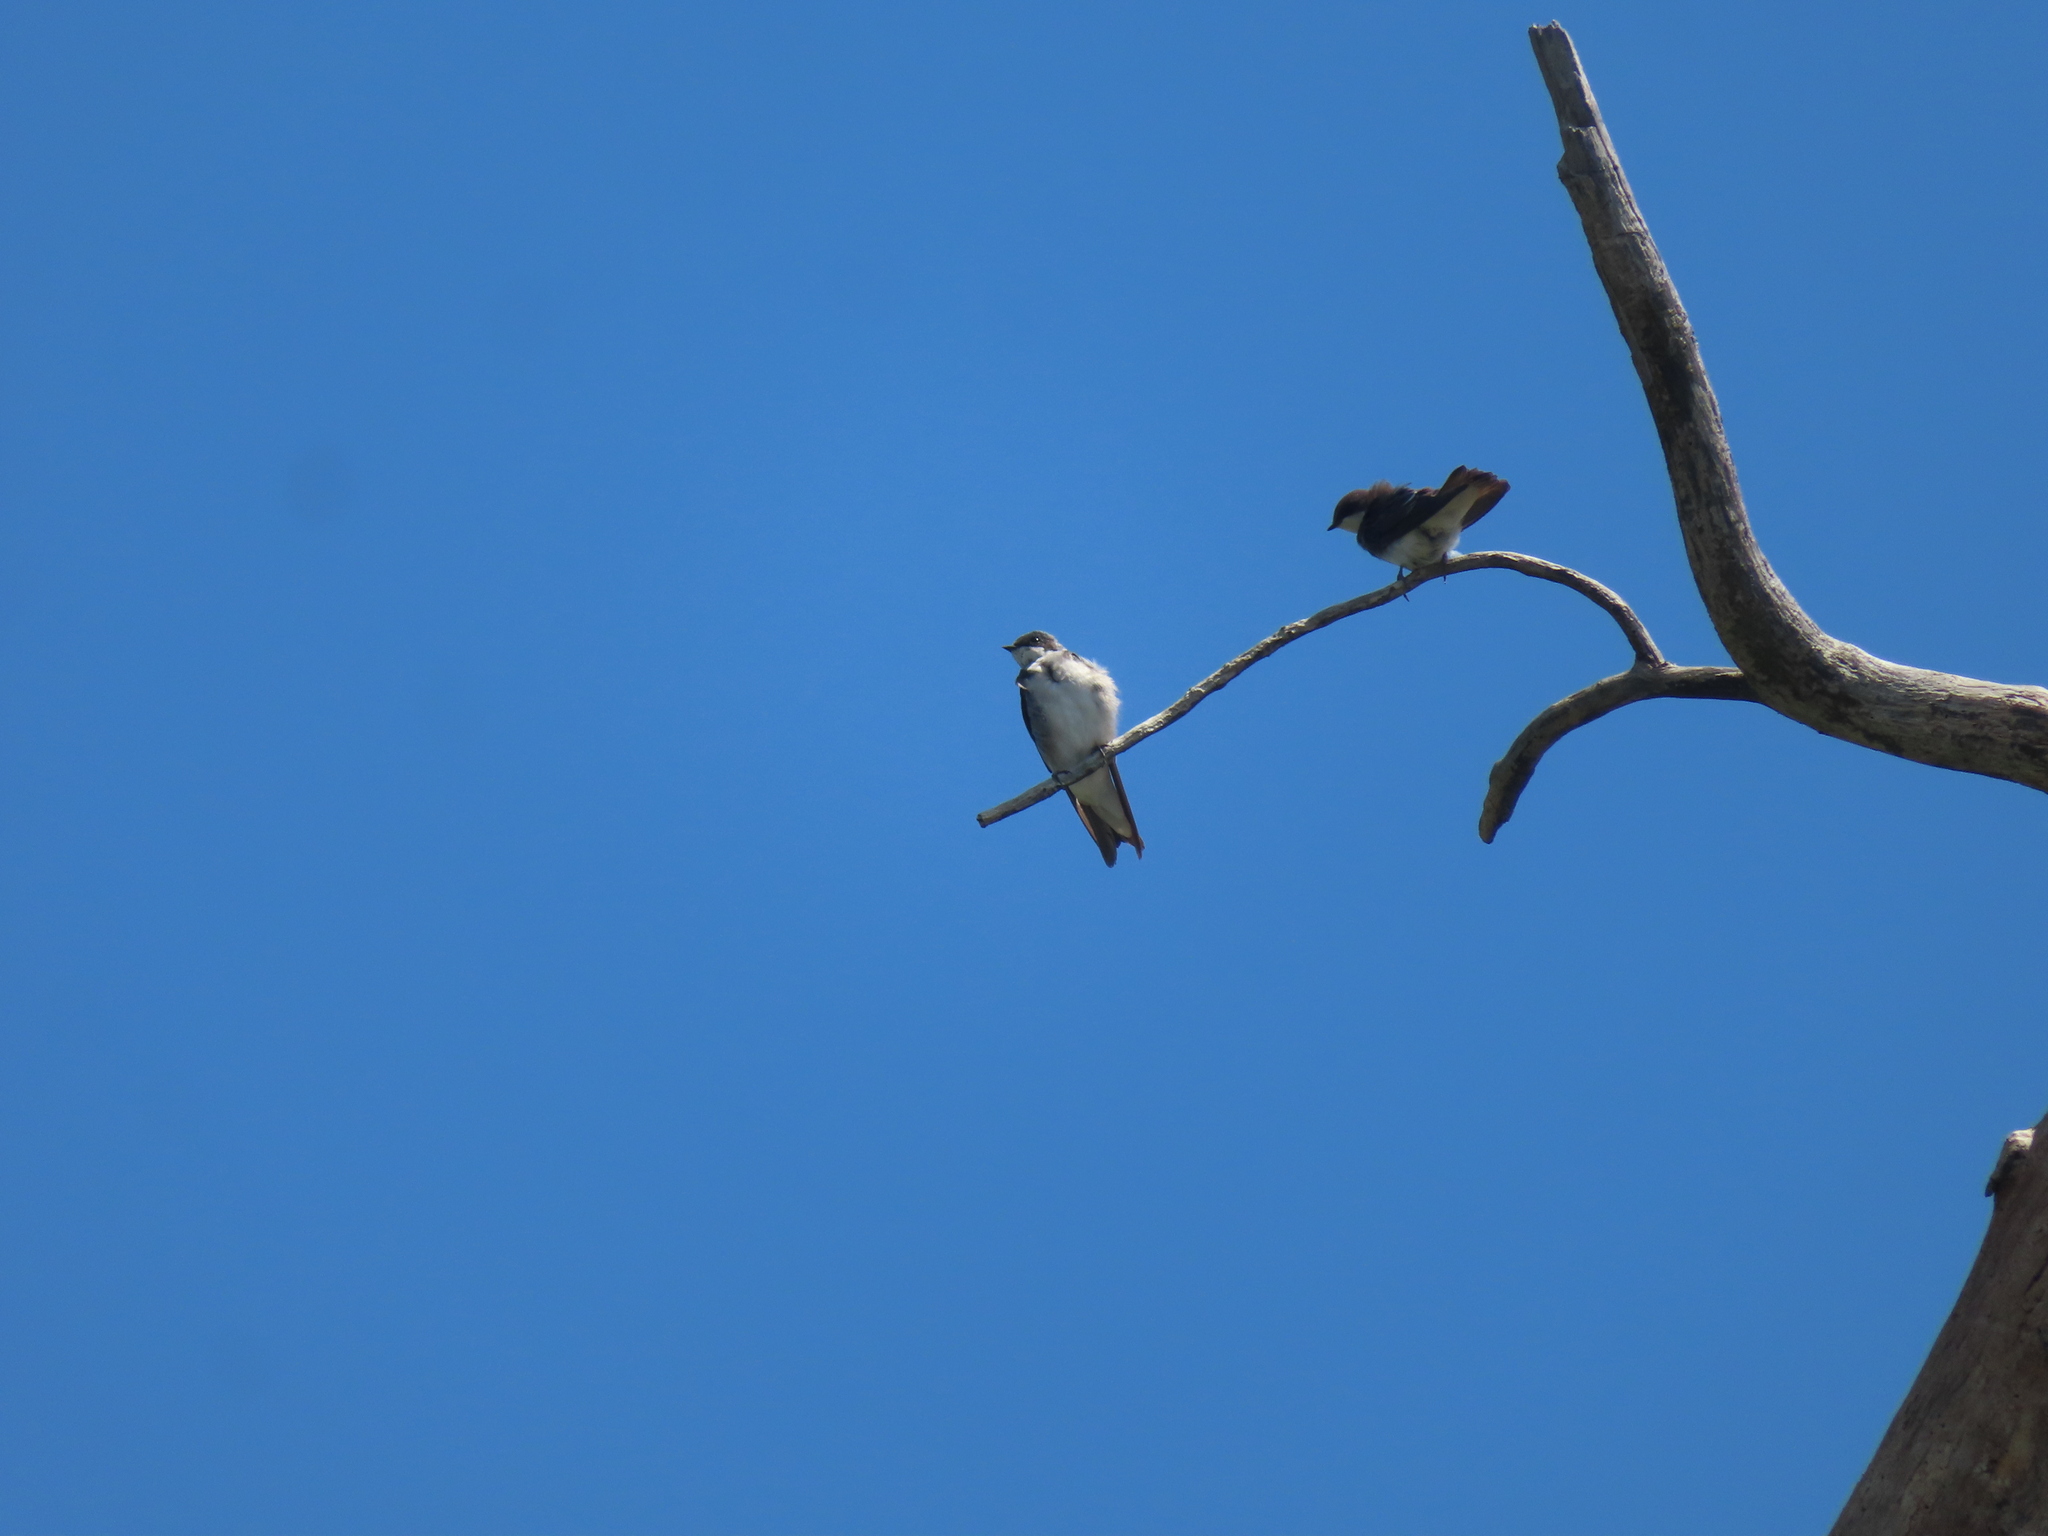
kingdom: Animalia
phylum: Chordata
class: Aves
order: Passeriformes
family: Hirundinidae
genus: Tachycineta
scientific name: Tachycineta bicolor
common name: Tree swallow
